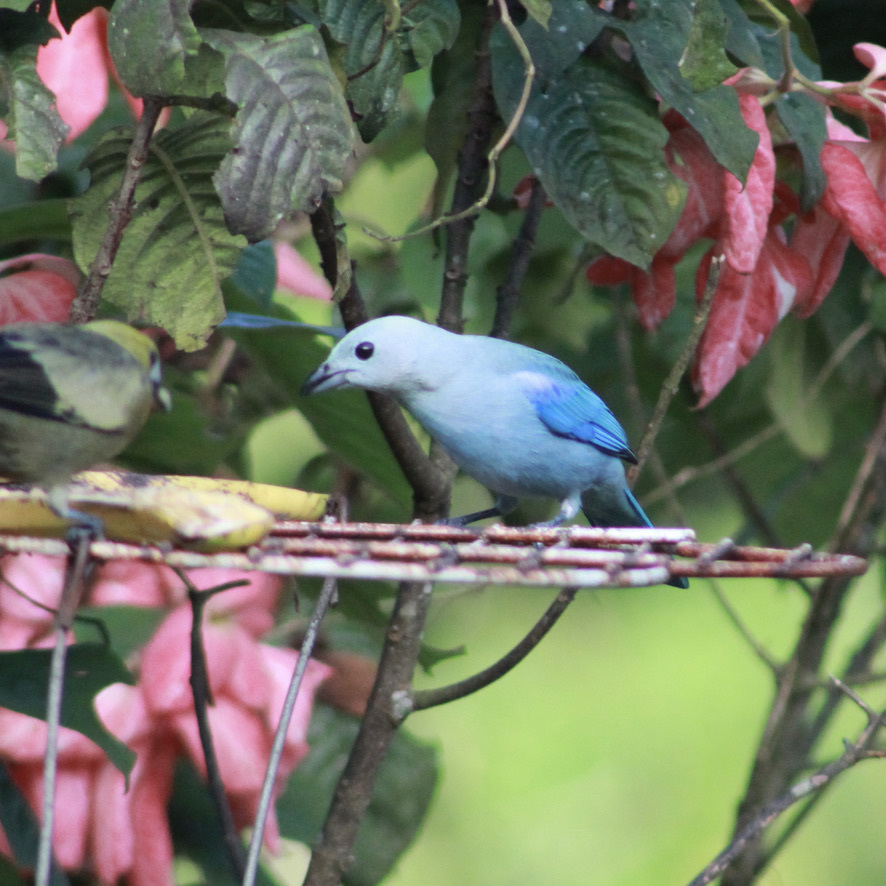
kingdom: Animalia
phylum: Chordata
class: Aves
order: Passeriformes
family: Thraupidae
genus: Thraupis
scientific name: Thraupis episcopus
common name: Blue-grey tanager
